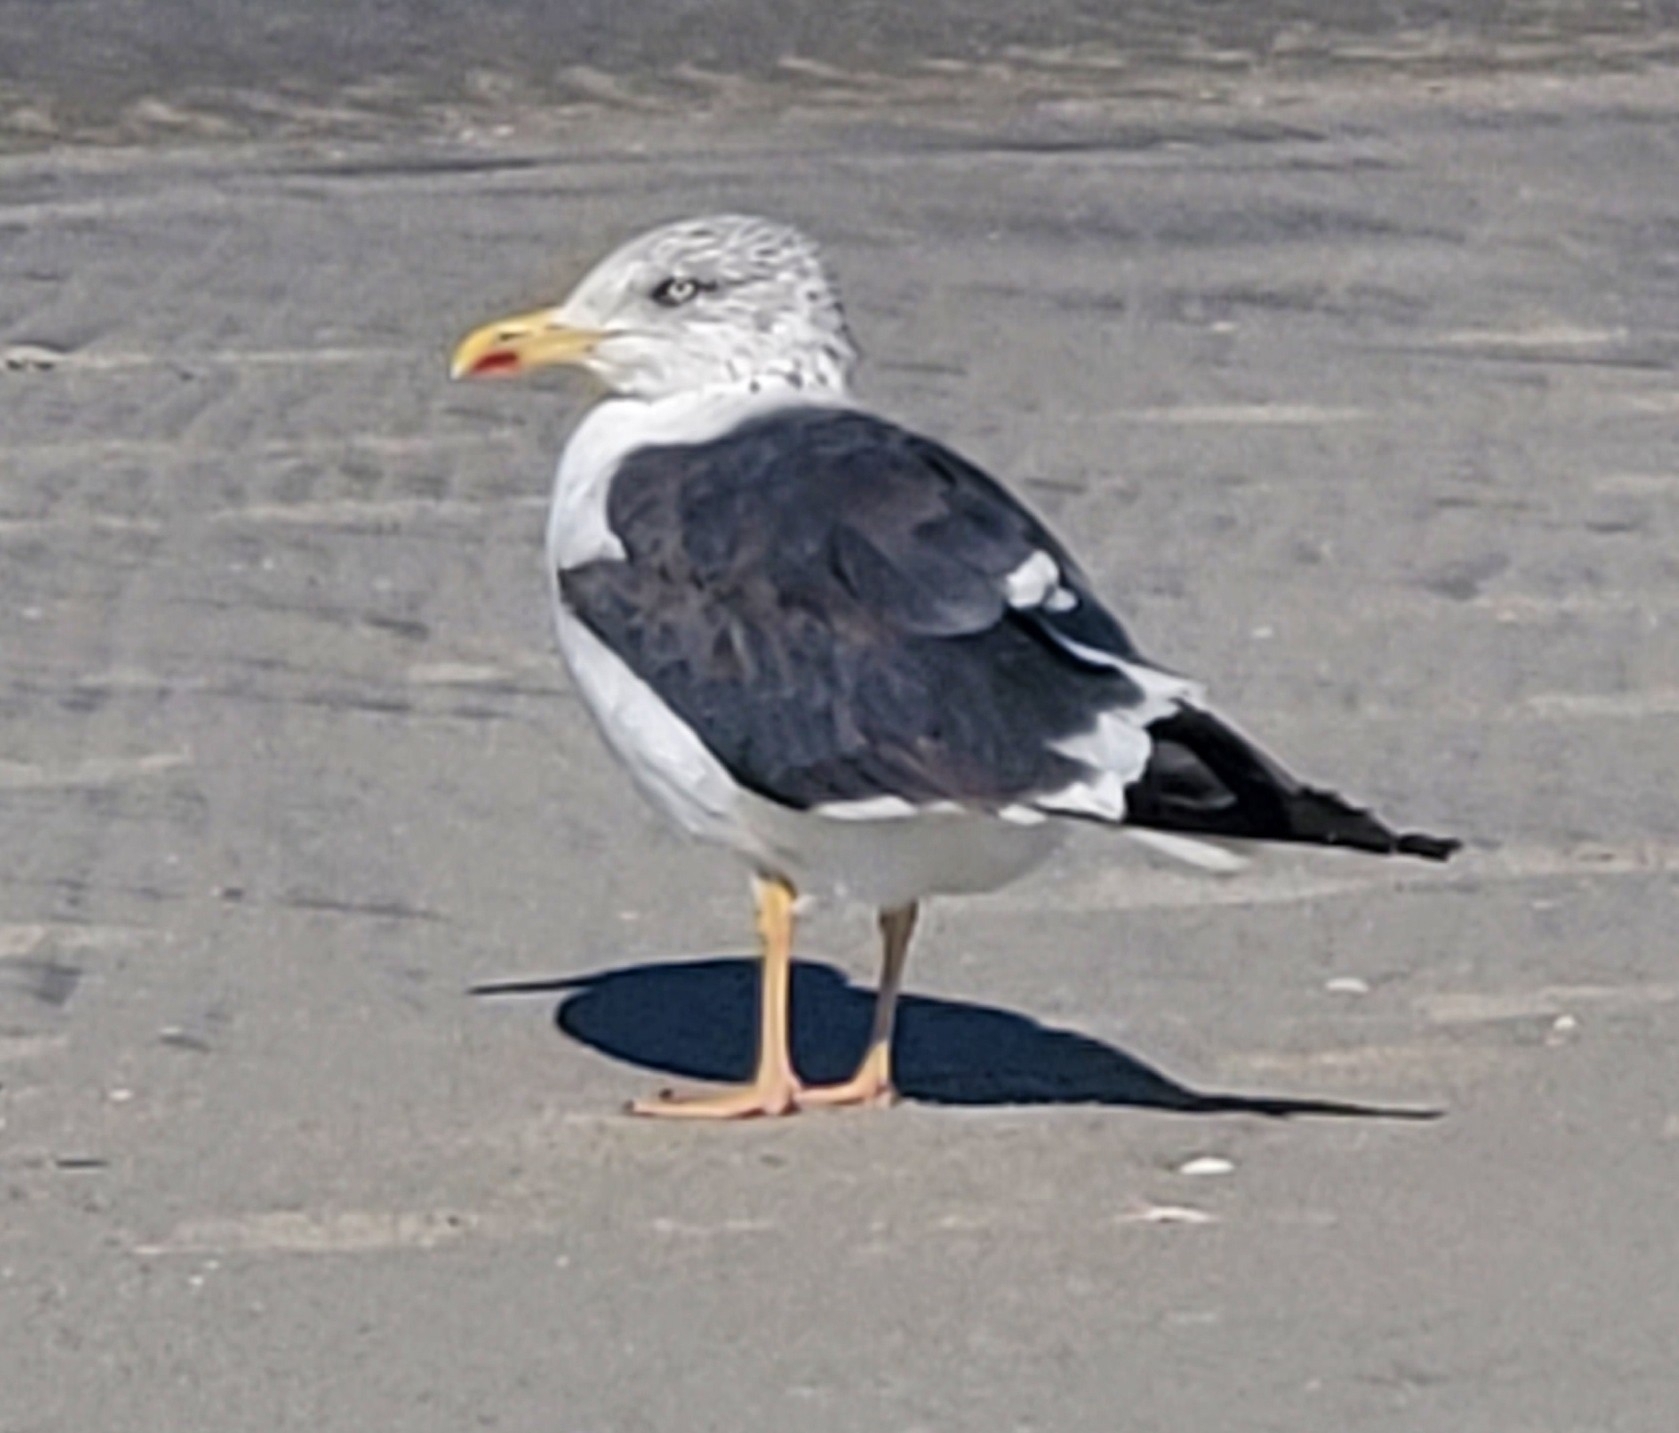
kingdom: Animalia
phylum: Chordata
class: Aves
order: Charadriiformes
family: Laridae
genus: Larus
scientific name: Larus fuscus
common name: Lesser black-backed gull
